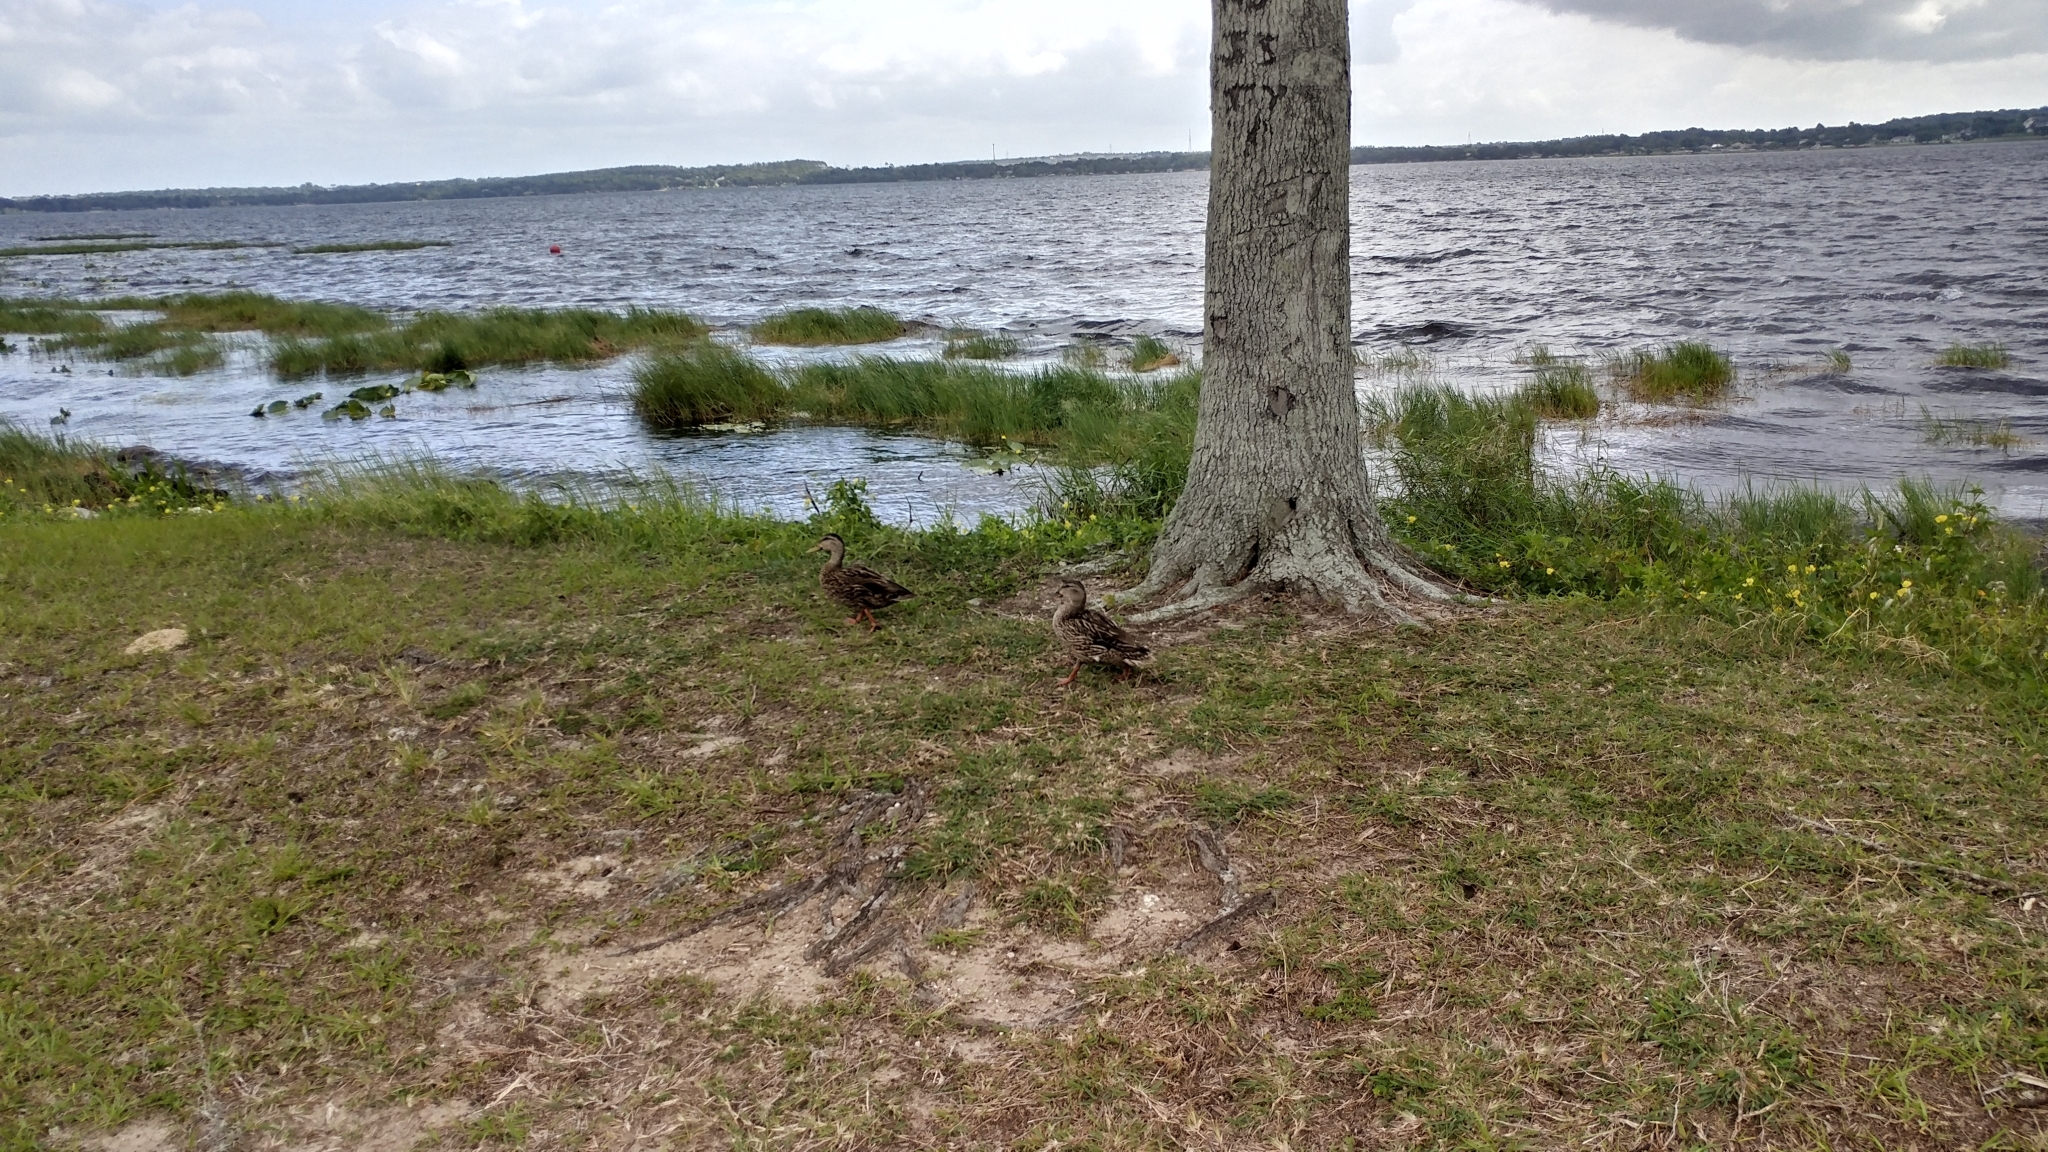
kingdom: Animalia
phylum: Chordata
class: Aves
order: Anseriformes
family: Anatidae
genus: Anas
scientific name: Anas
